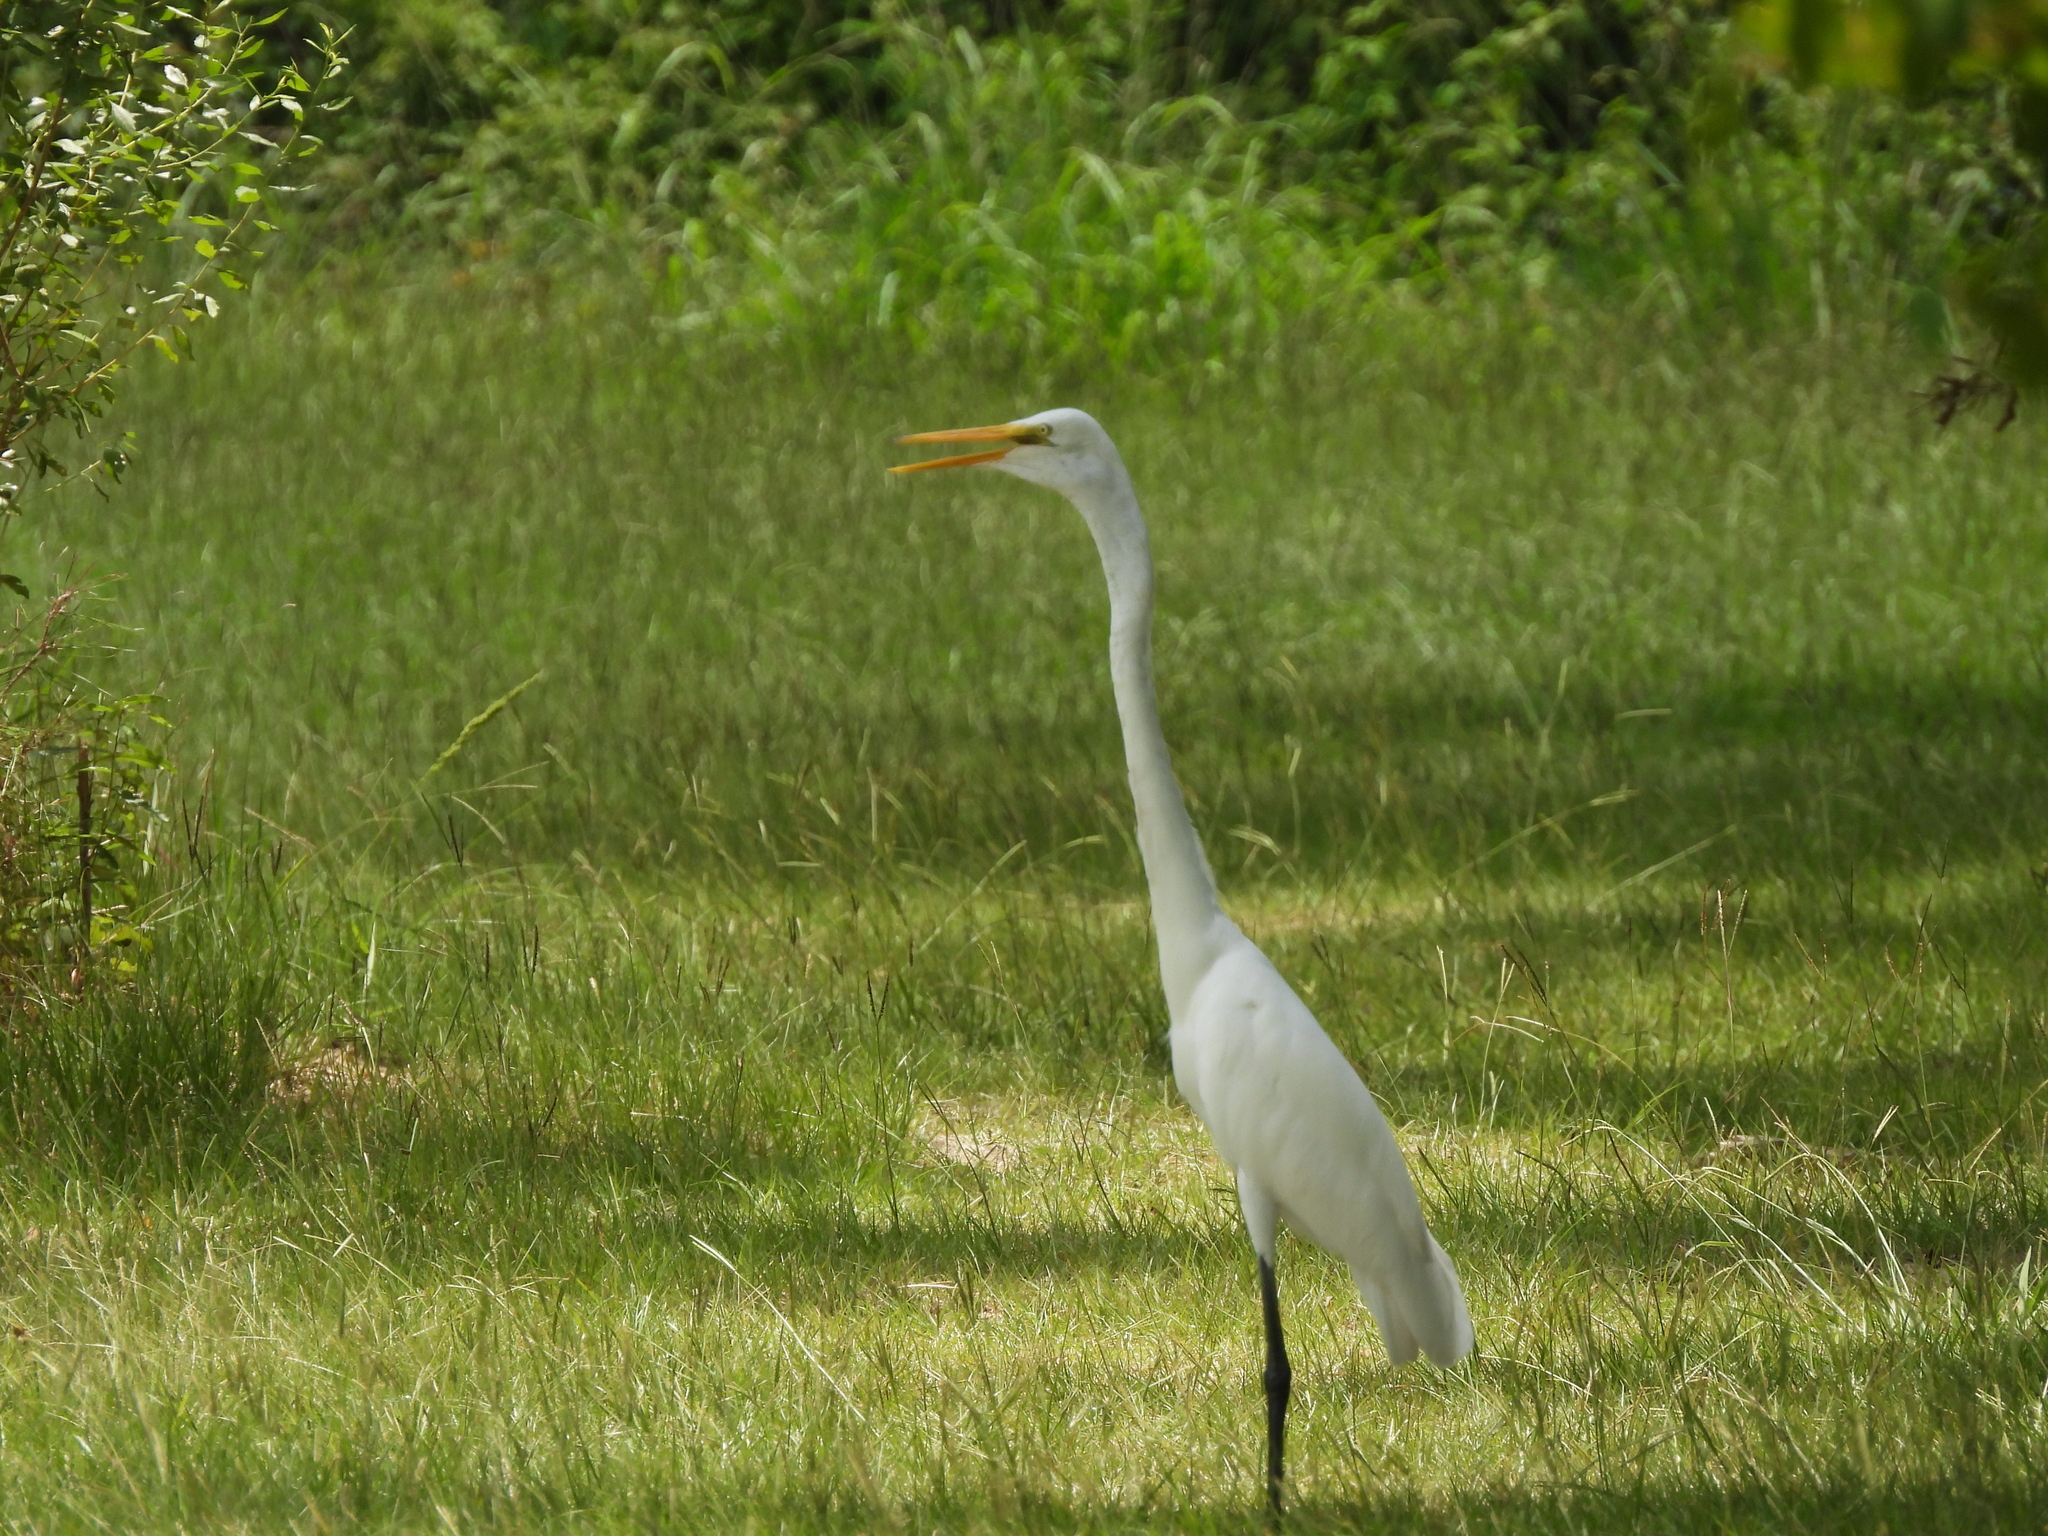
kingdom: Animalia
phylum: Chordata
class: Aves
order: Pelecaniformes
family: Ardeidae
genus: Ardea
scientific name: Ardea alba
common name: Great egret
